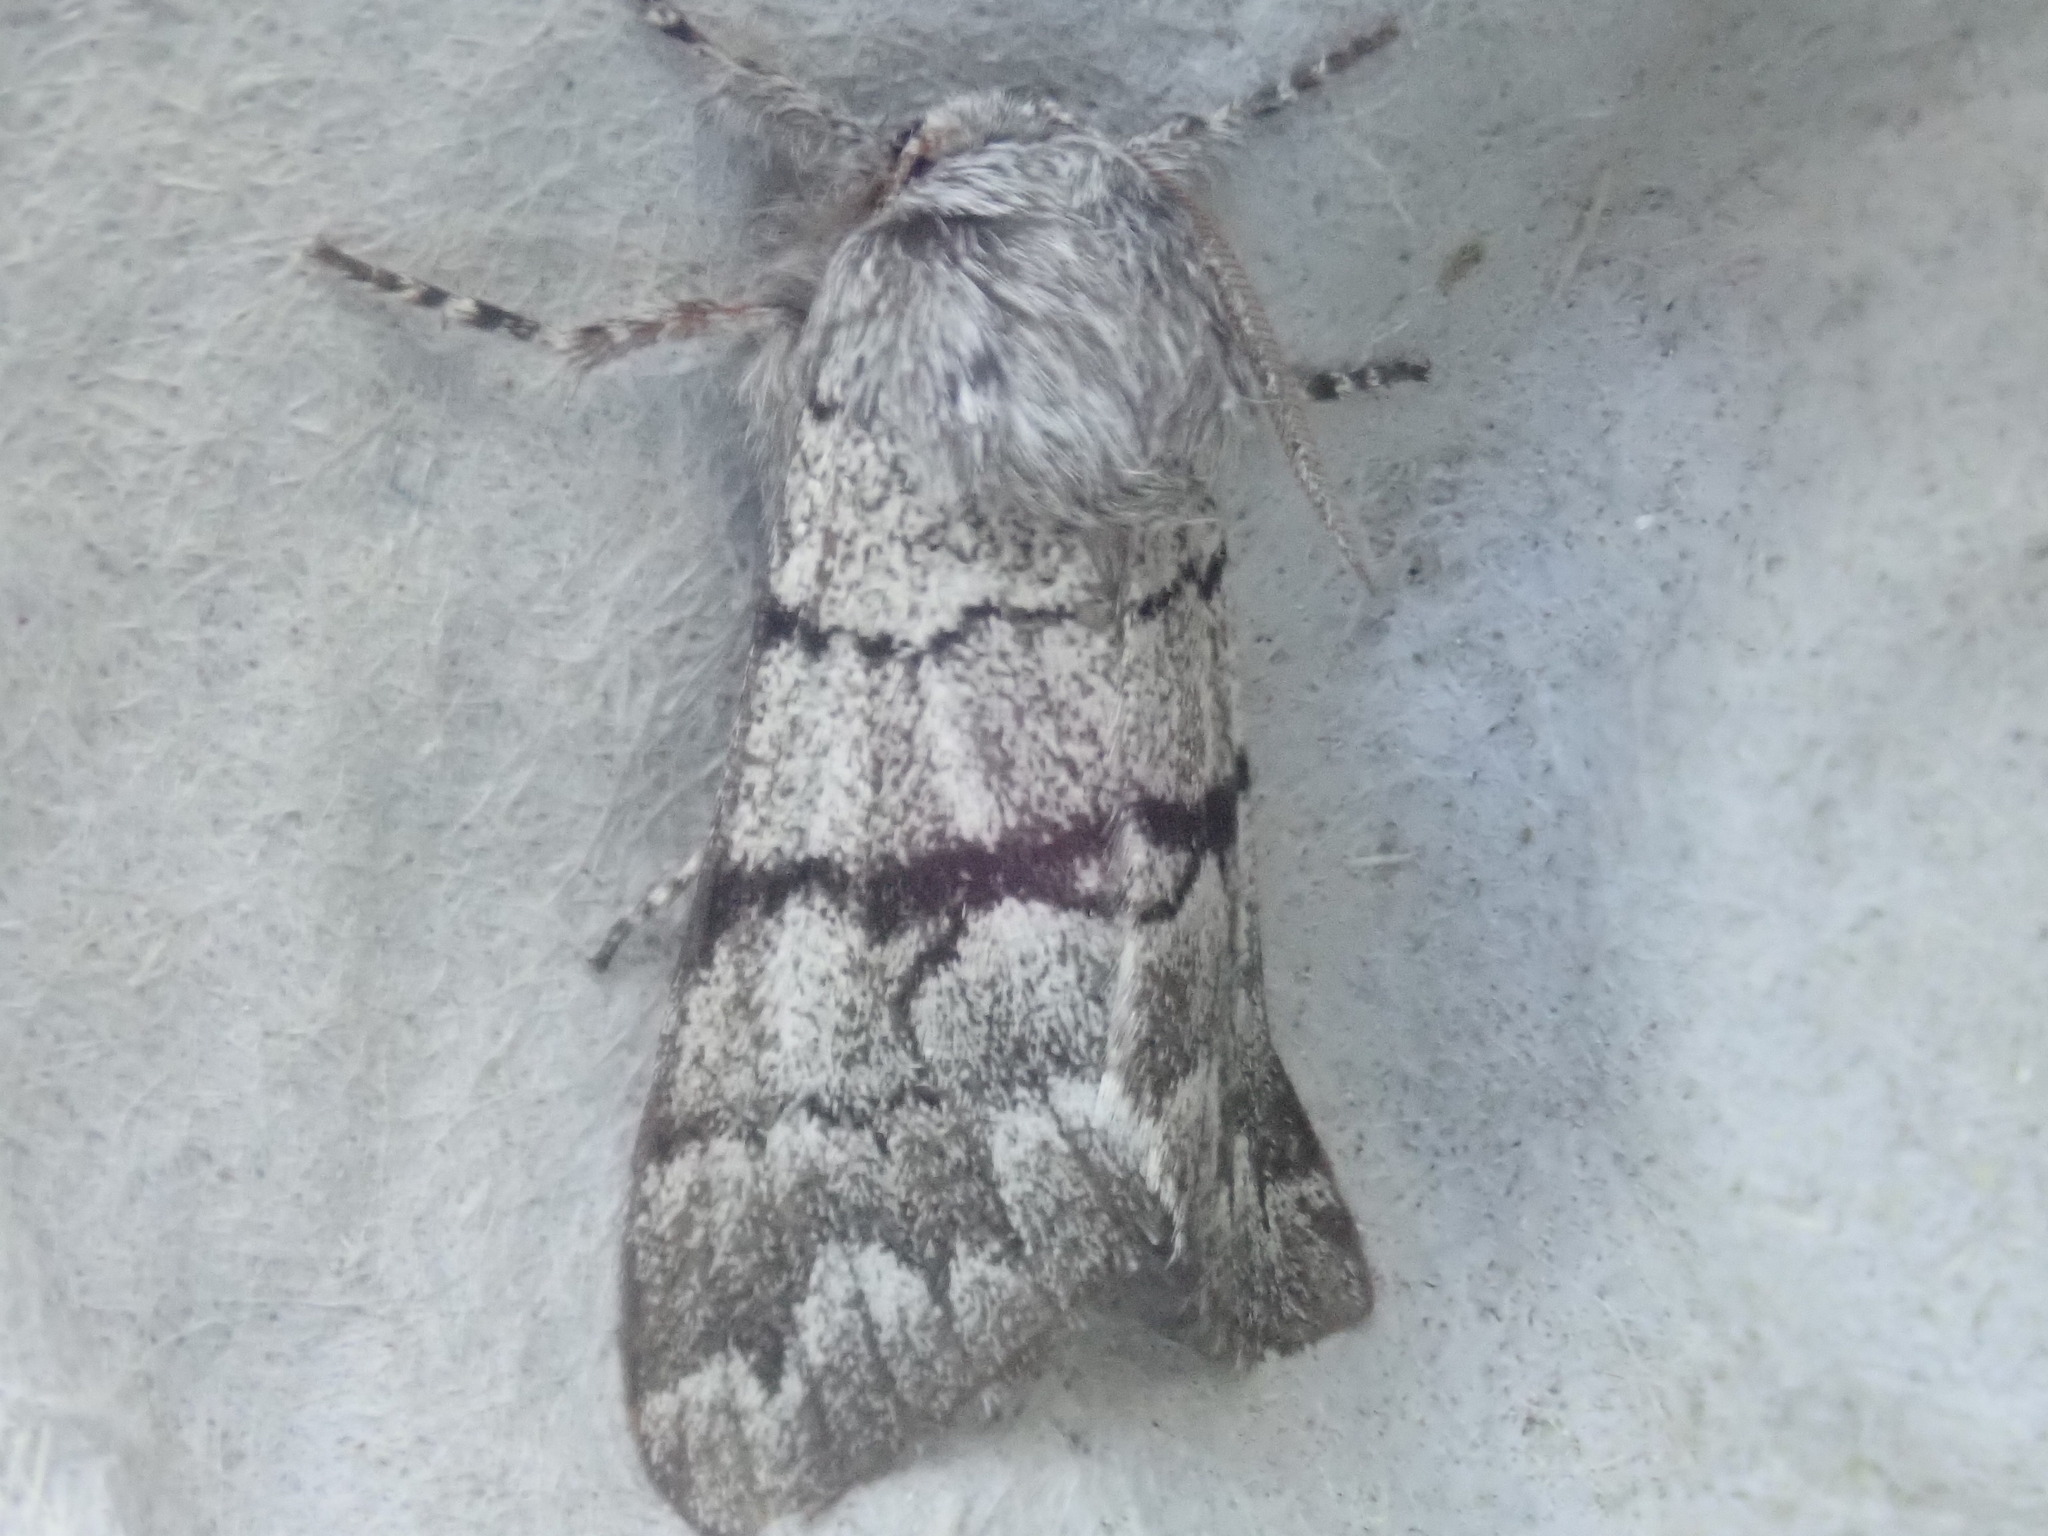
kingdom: Animalia
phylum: Arthropoda
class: Insecta
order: Lepidoptera
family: Noctuidae
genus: Panthea
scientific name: Panthea furcilla
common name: Eastern panthea moth
